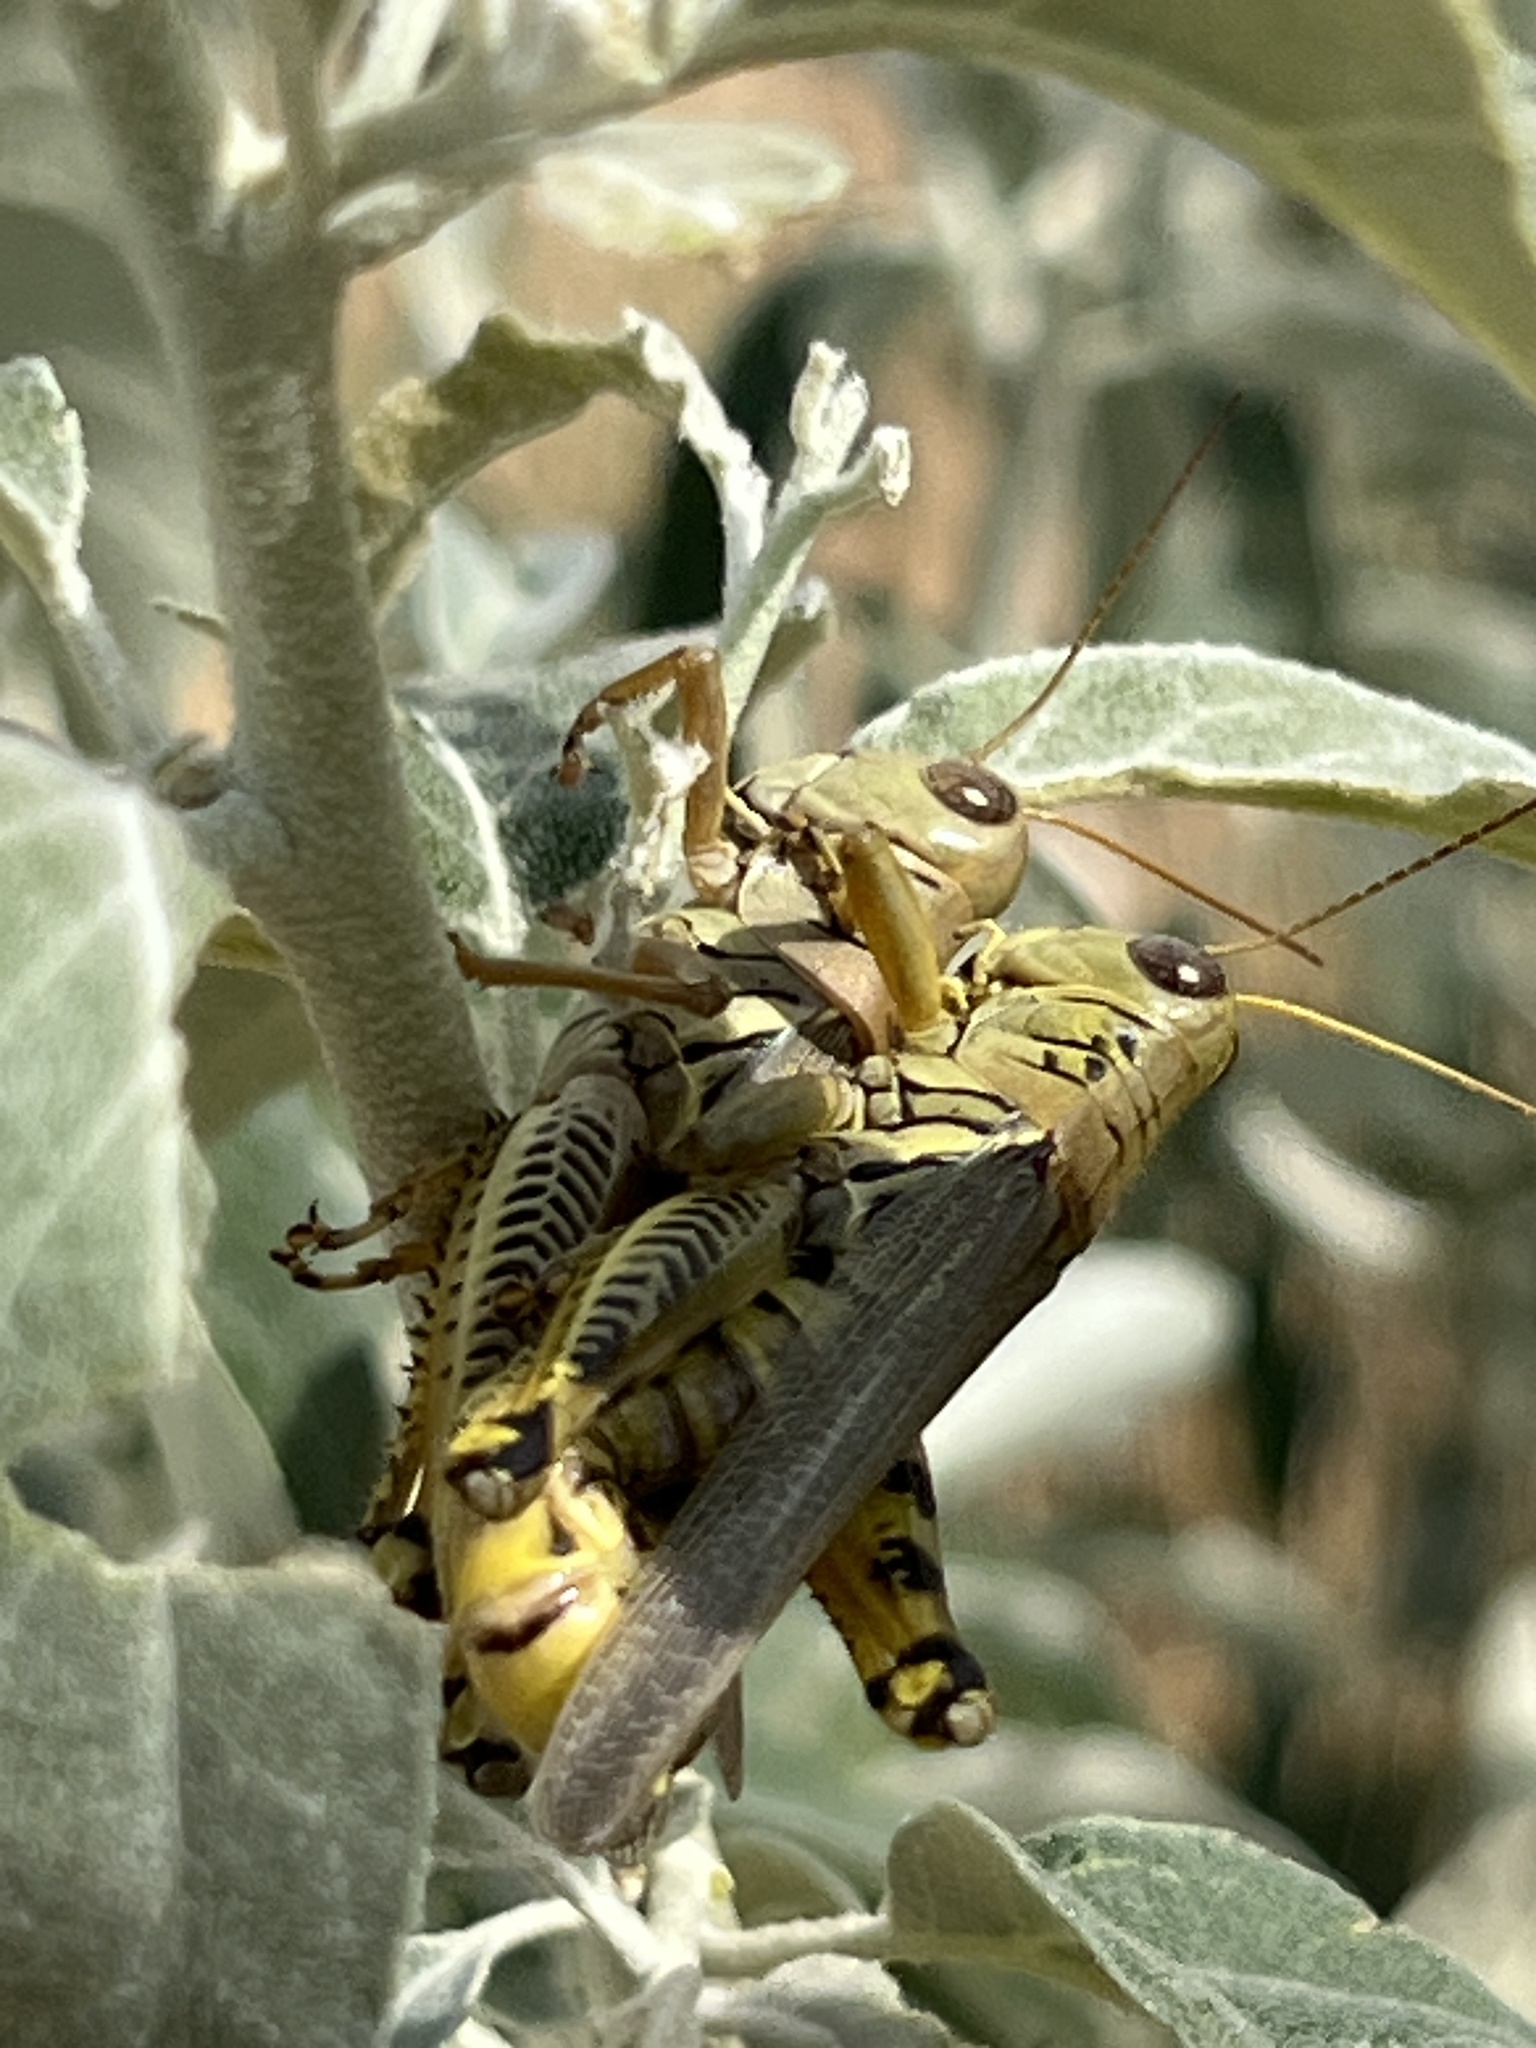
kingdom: Animalia
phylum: Arthropoda
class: Insecta
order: Orthoptera
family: Acrididae
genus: Melanoplus
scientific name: Melanoplus differentialis
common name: Differential grasshopper
